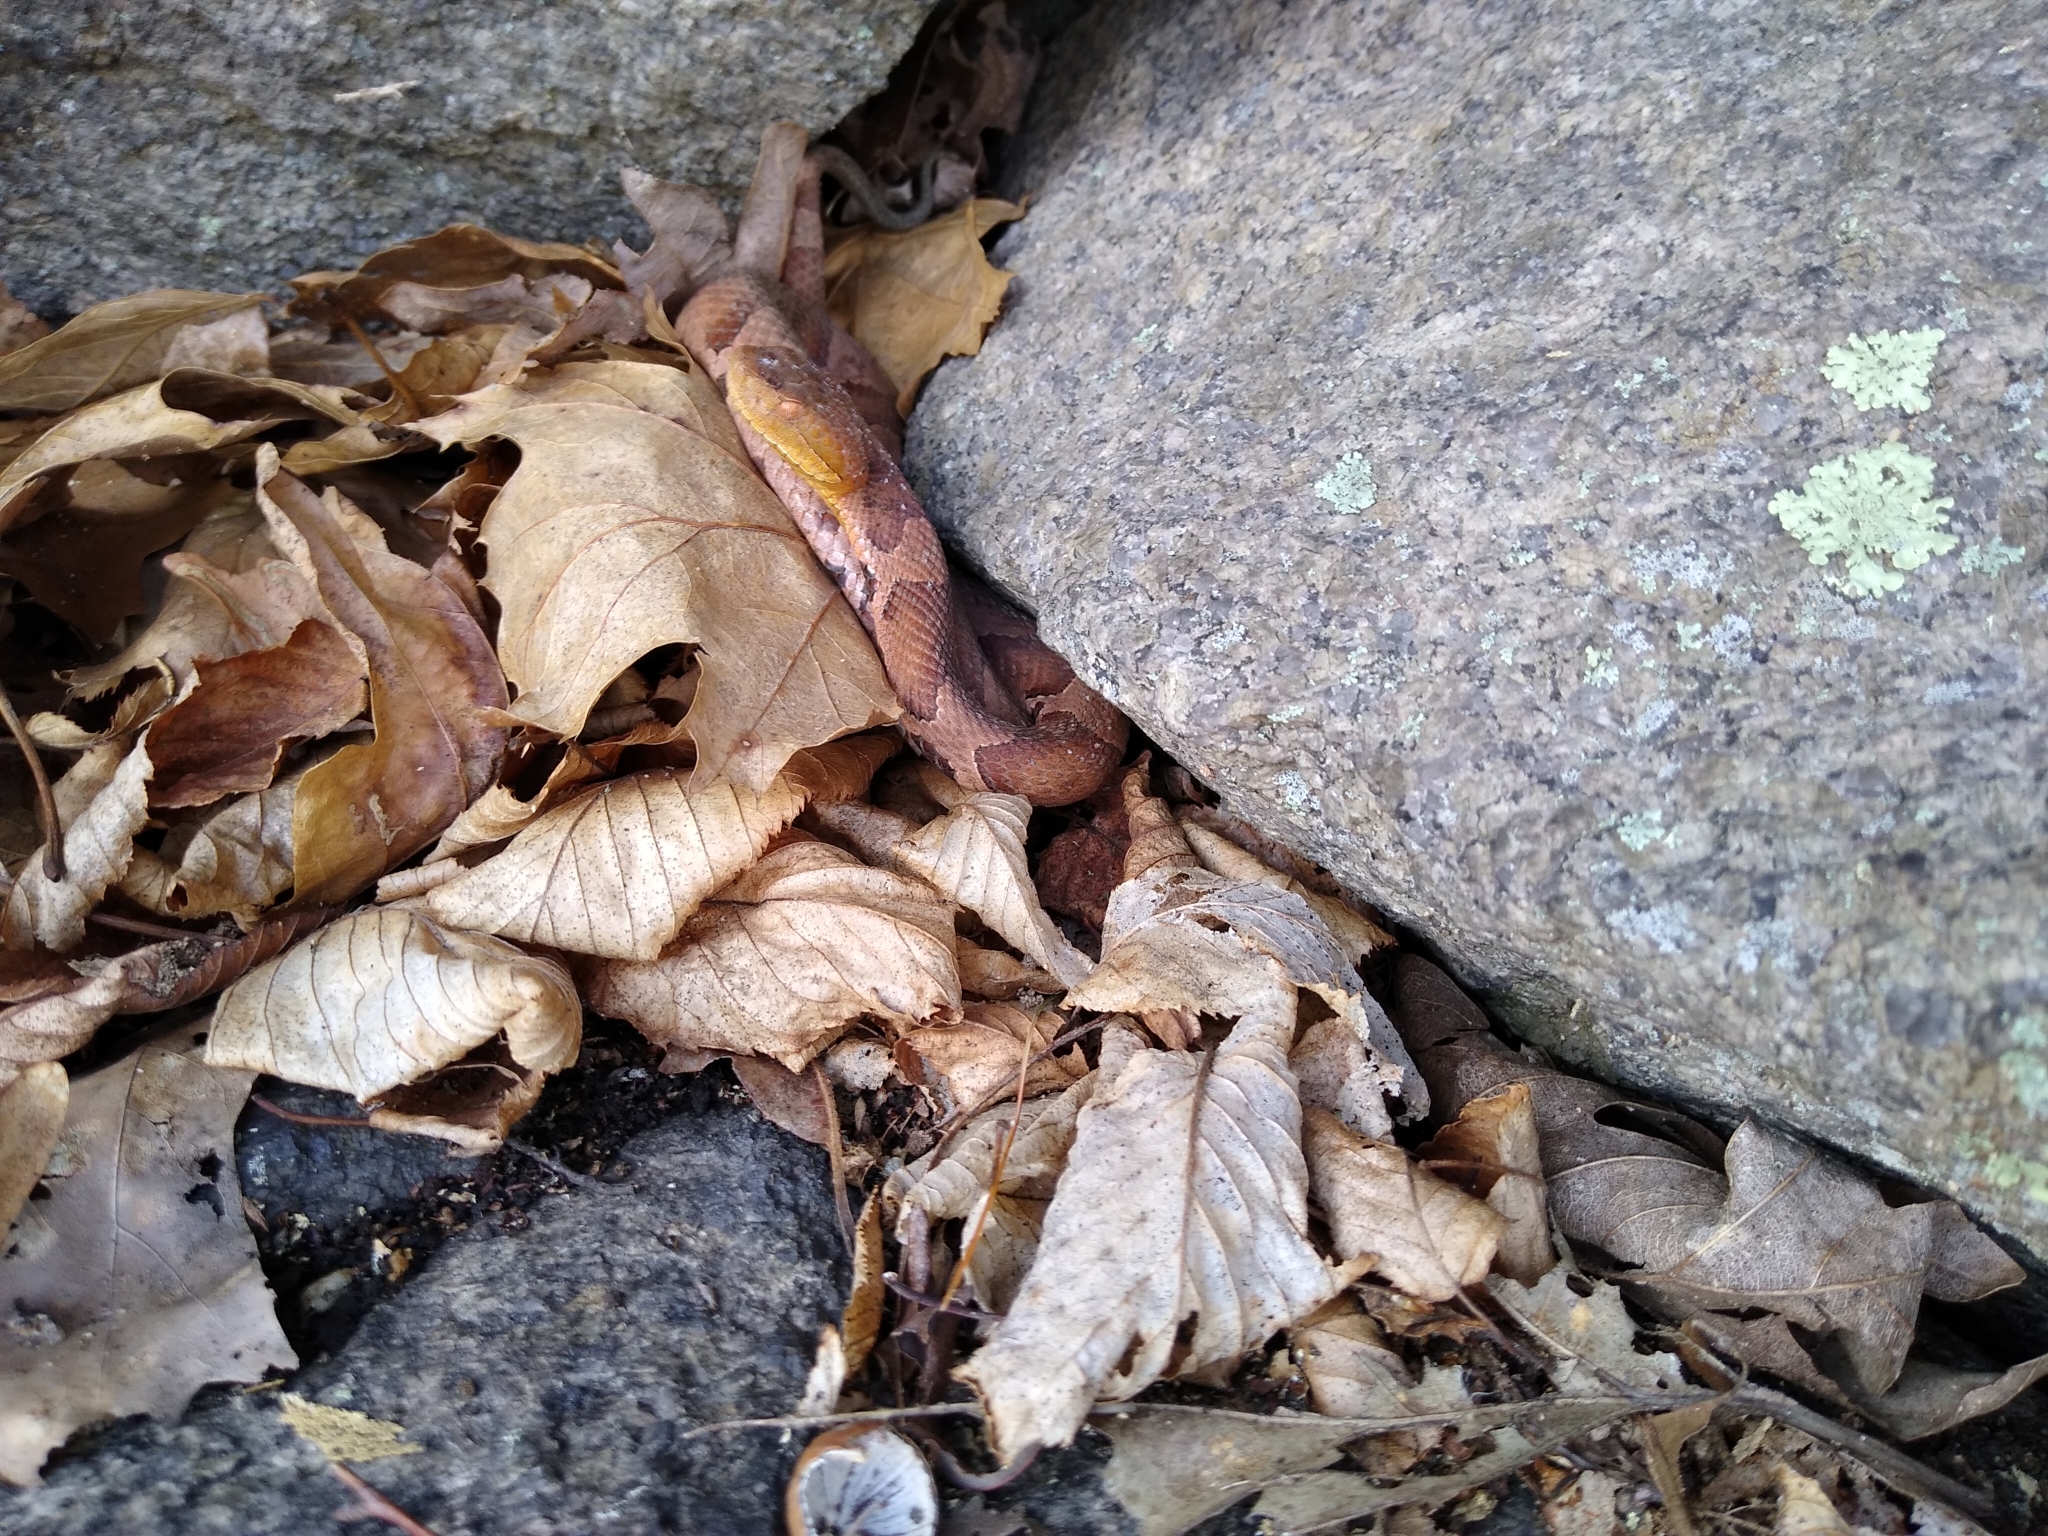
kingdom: Animalia
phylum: Chordata
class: Squamata
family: Viperidae
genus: Agkistrodon
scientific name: Agkistrodon contortrix
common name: Northern copperhead
